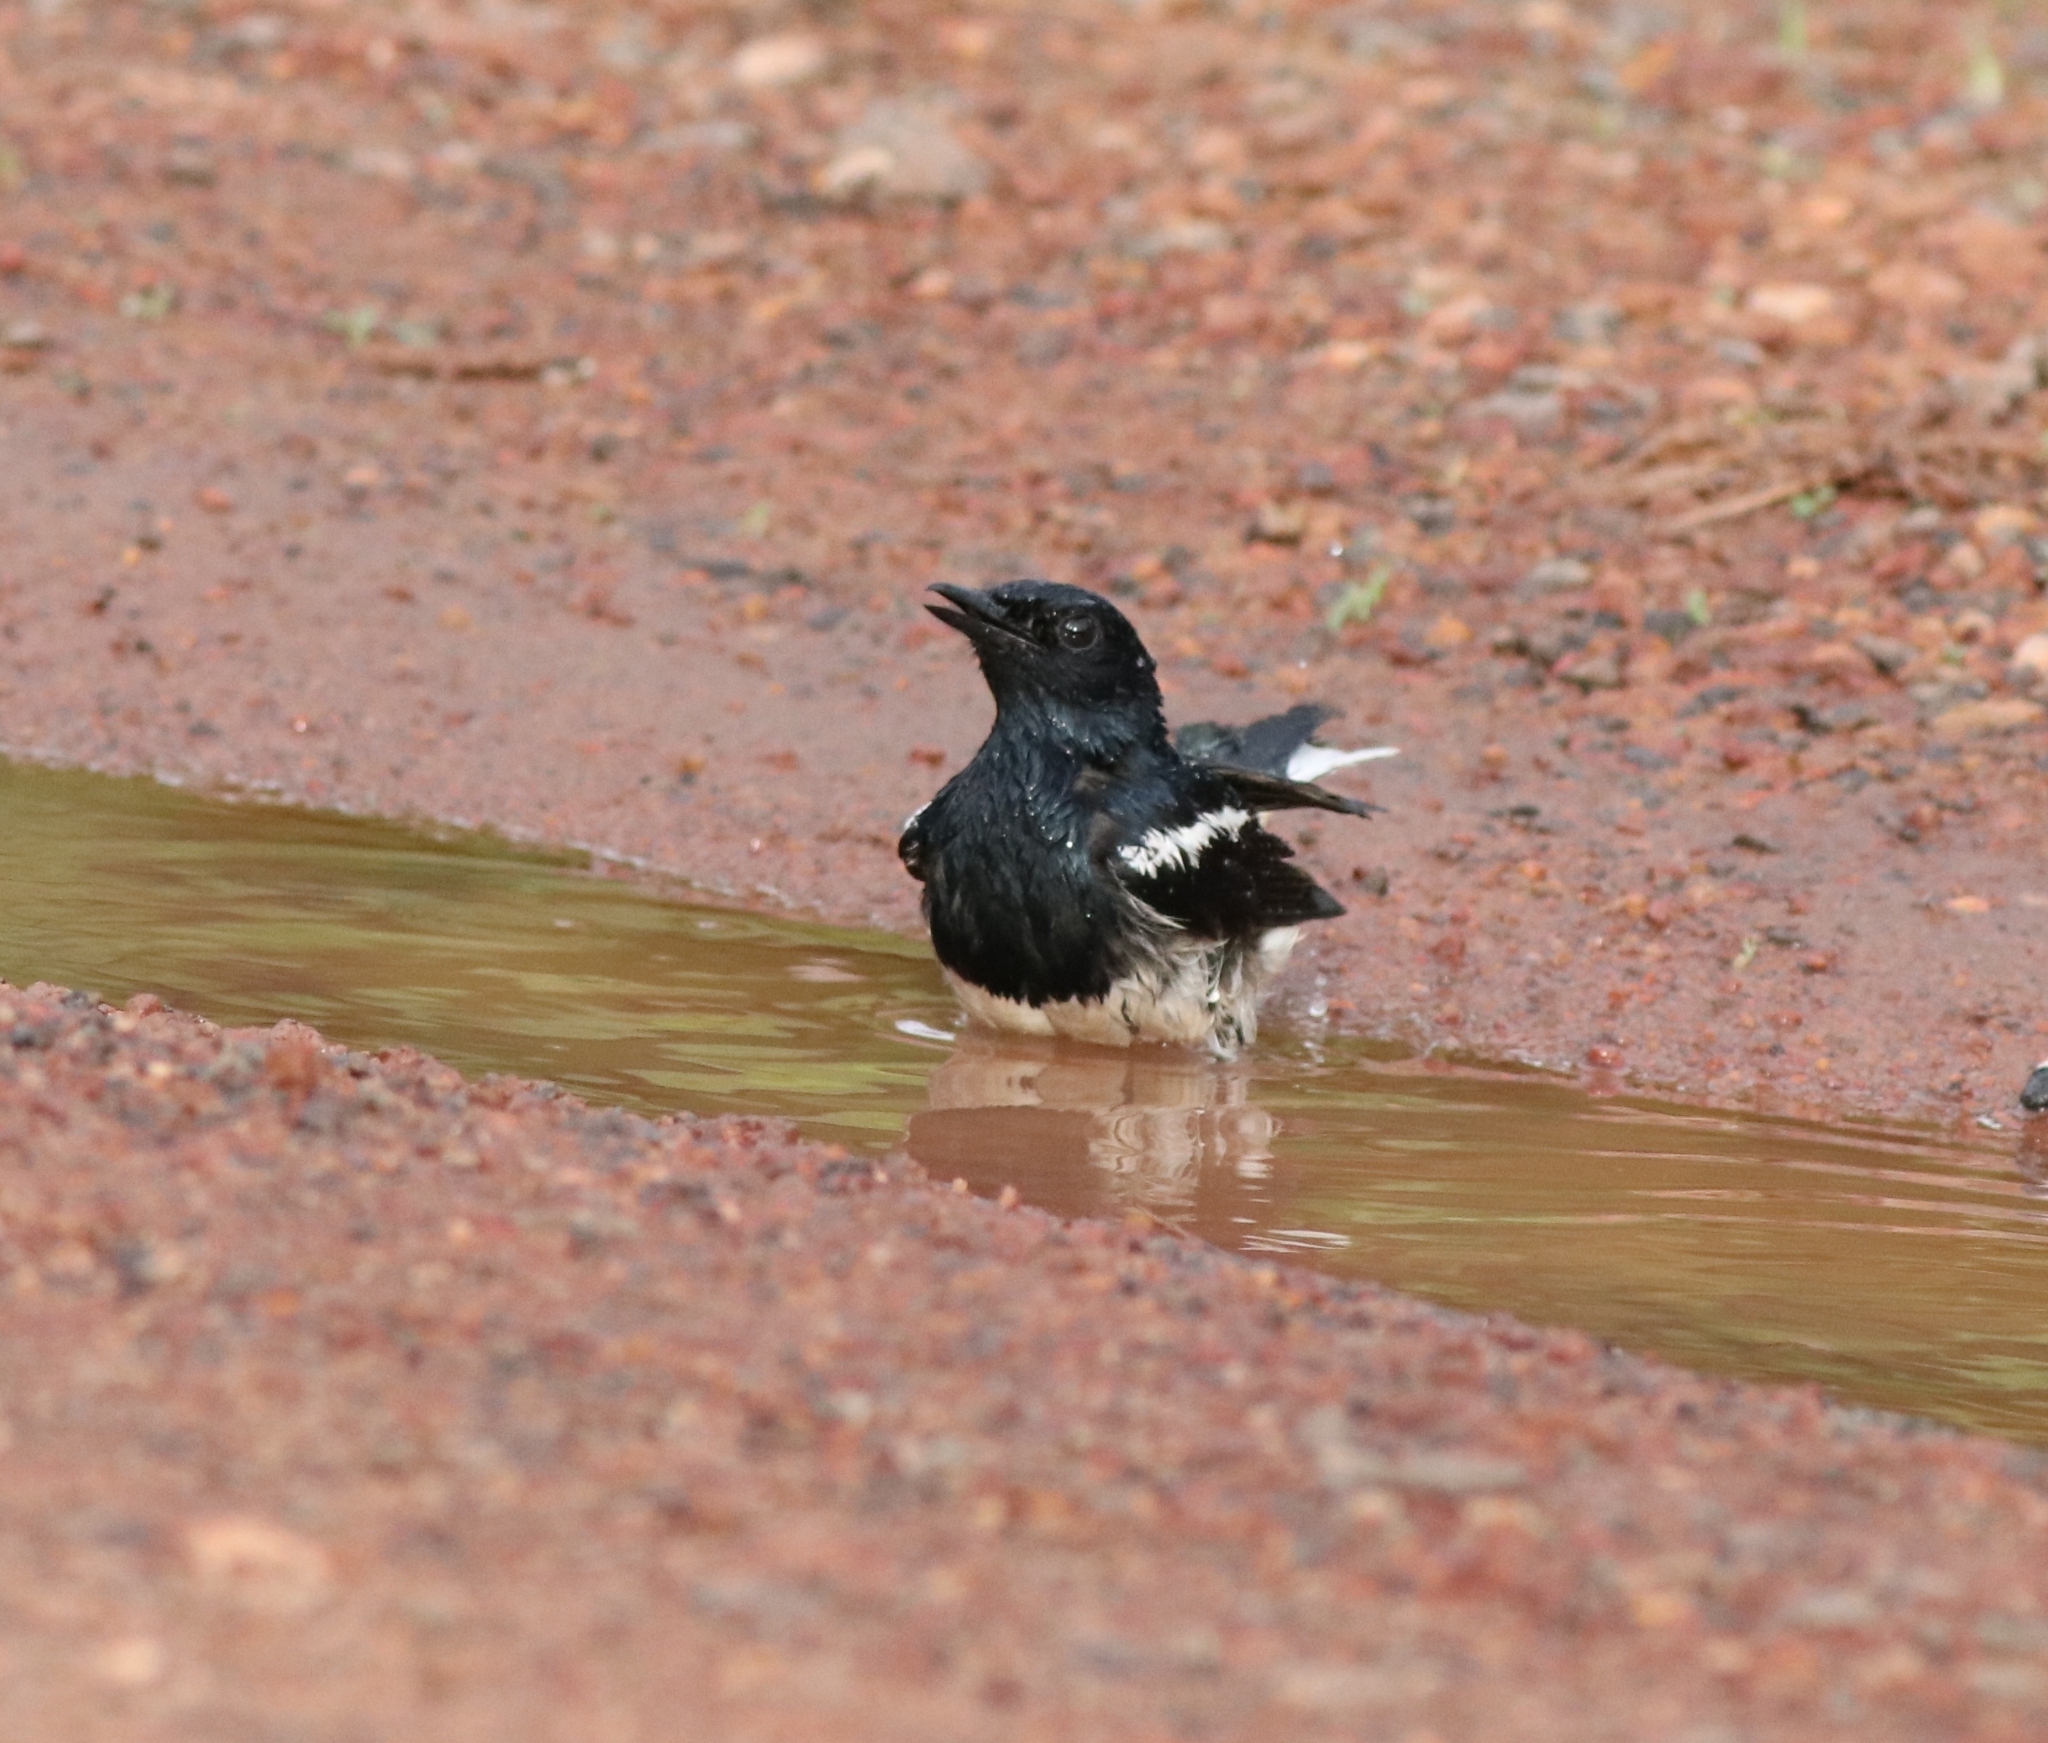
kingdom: Animalia
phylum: Chordata
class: Aves
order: Passeriformes
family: Muscicapidae
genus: Copsychus
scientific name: Copsychus saularis
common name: Oriental magpie-robin
